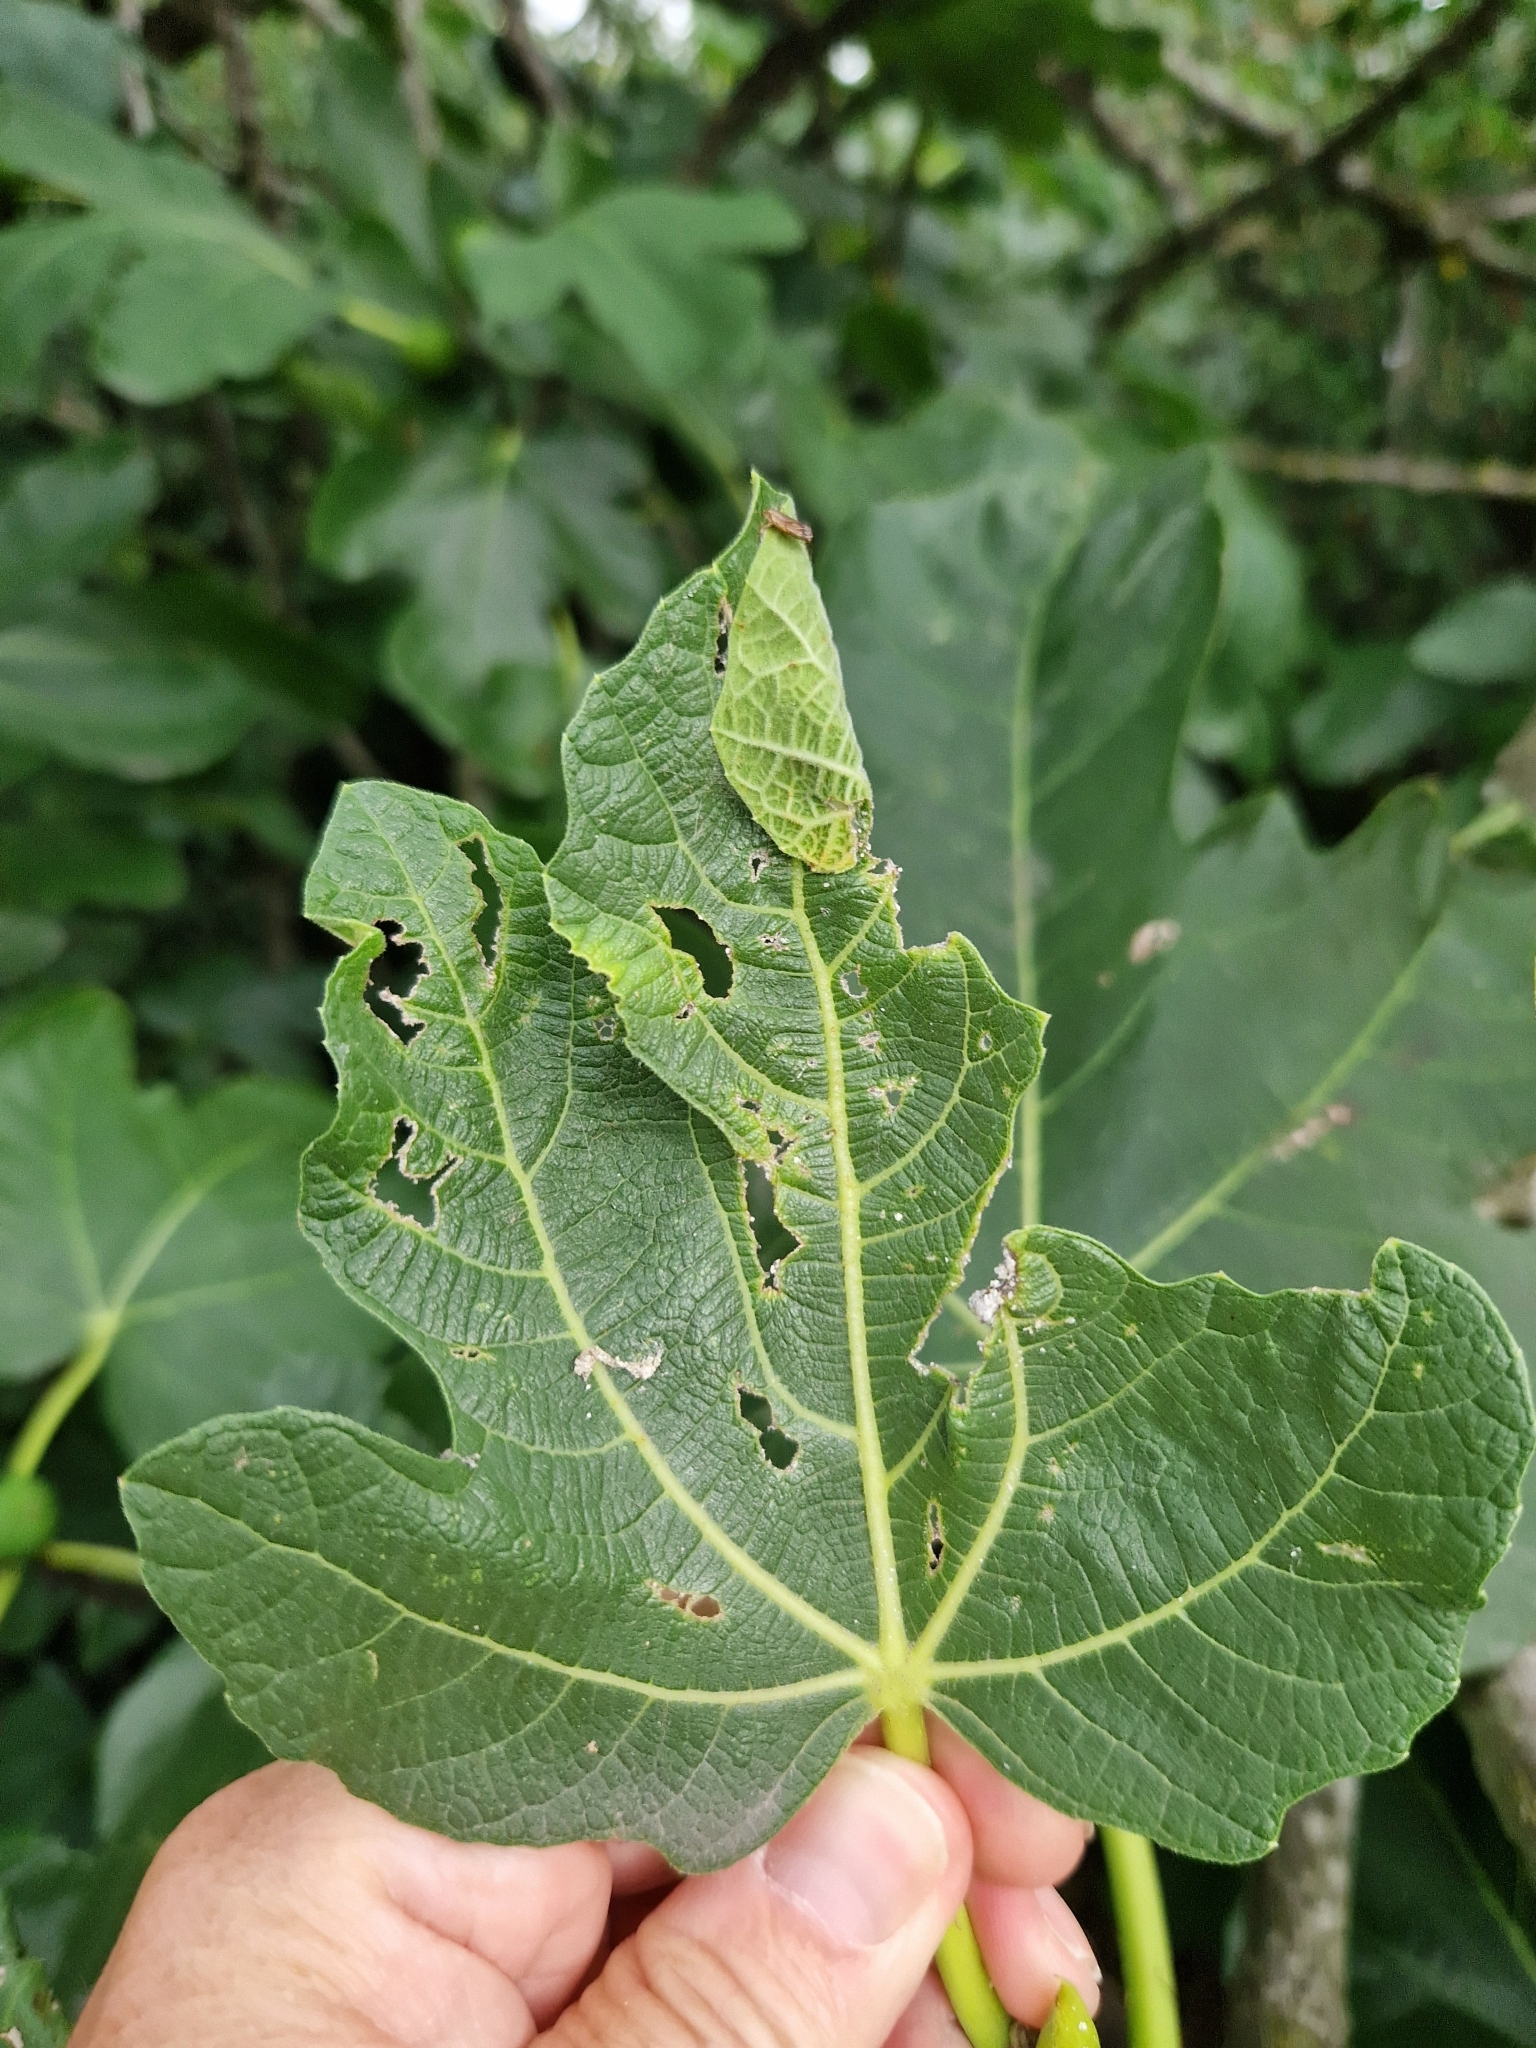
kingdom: Animalia
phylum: Arthropoda
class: Insecta
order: Lepidoptera
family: Choreutidae
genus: Anthophila
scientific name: Anthophila nemorana
